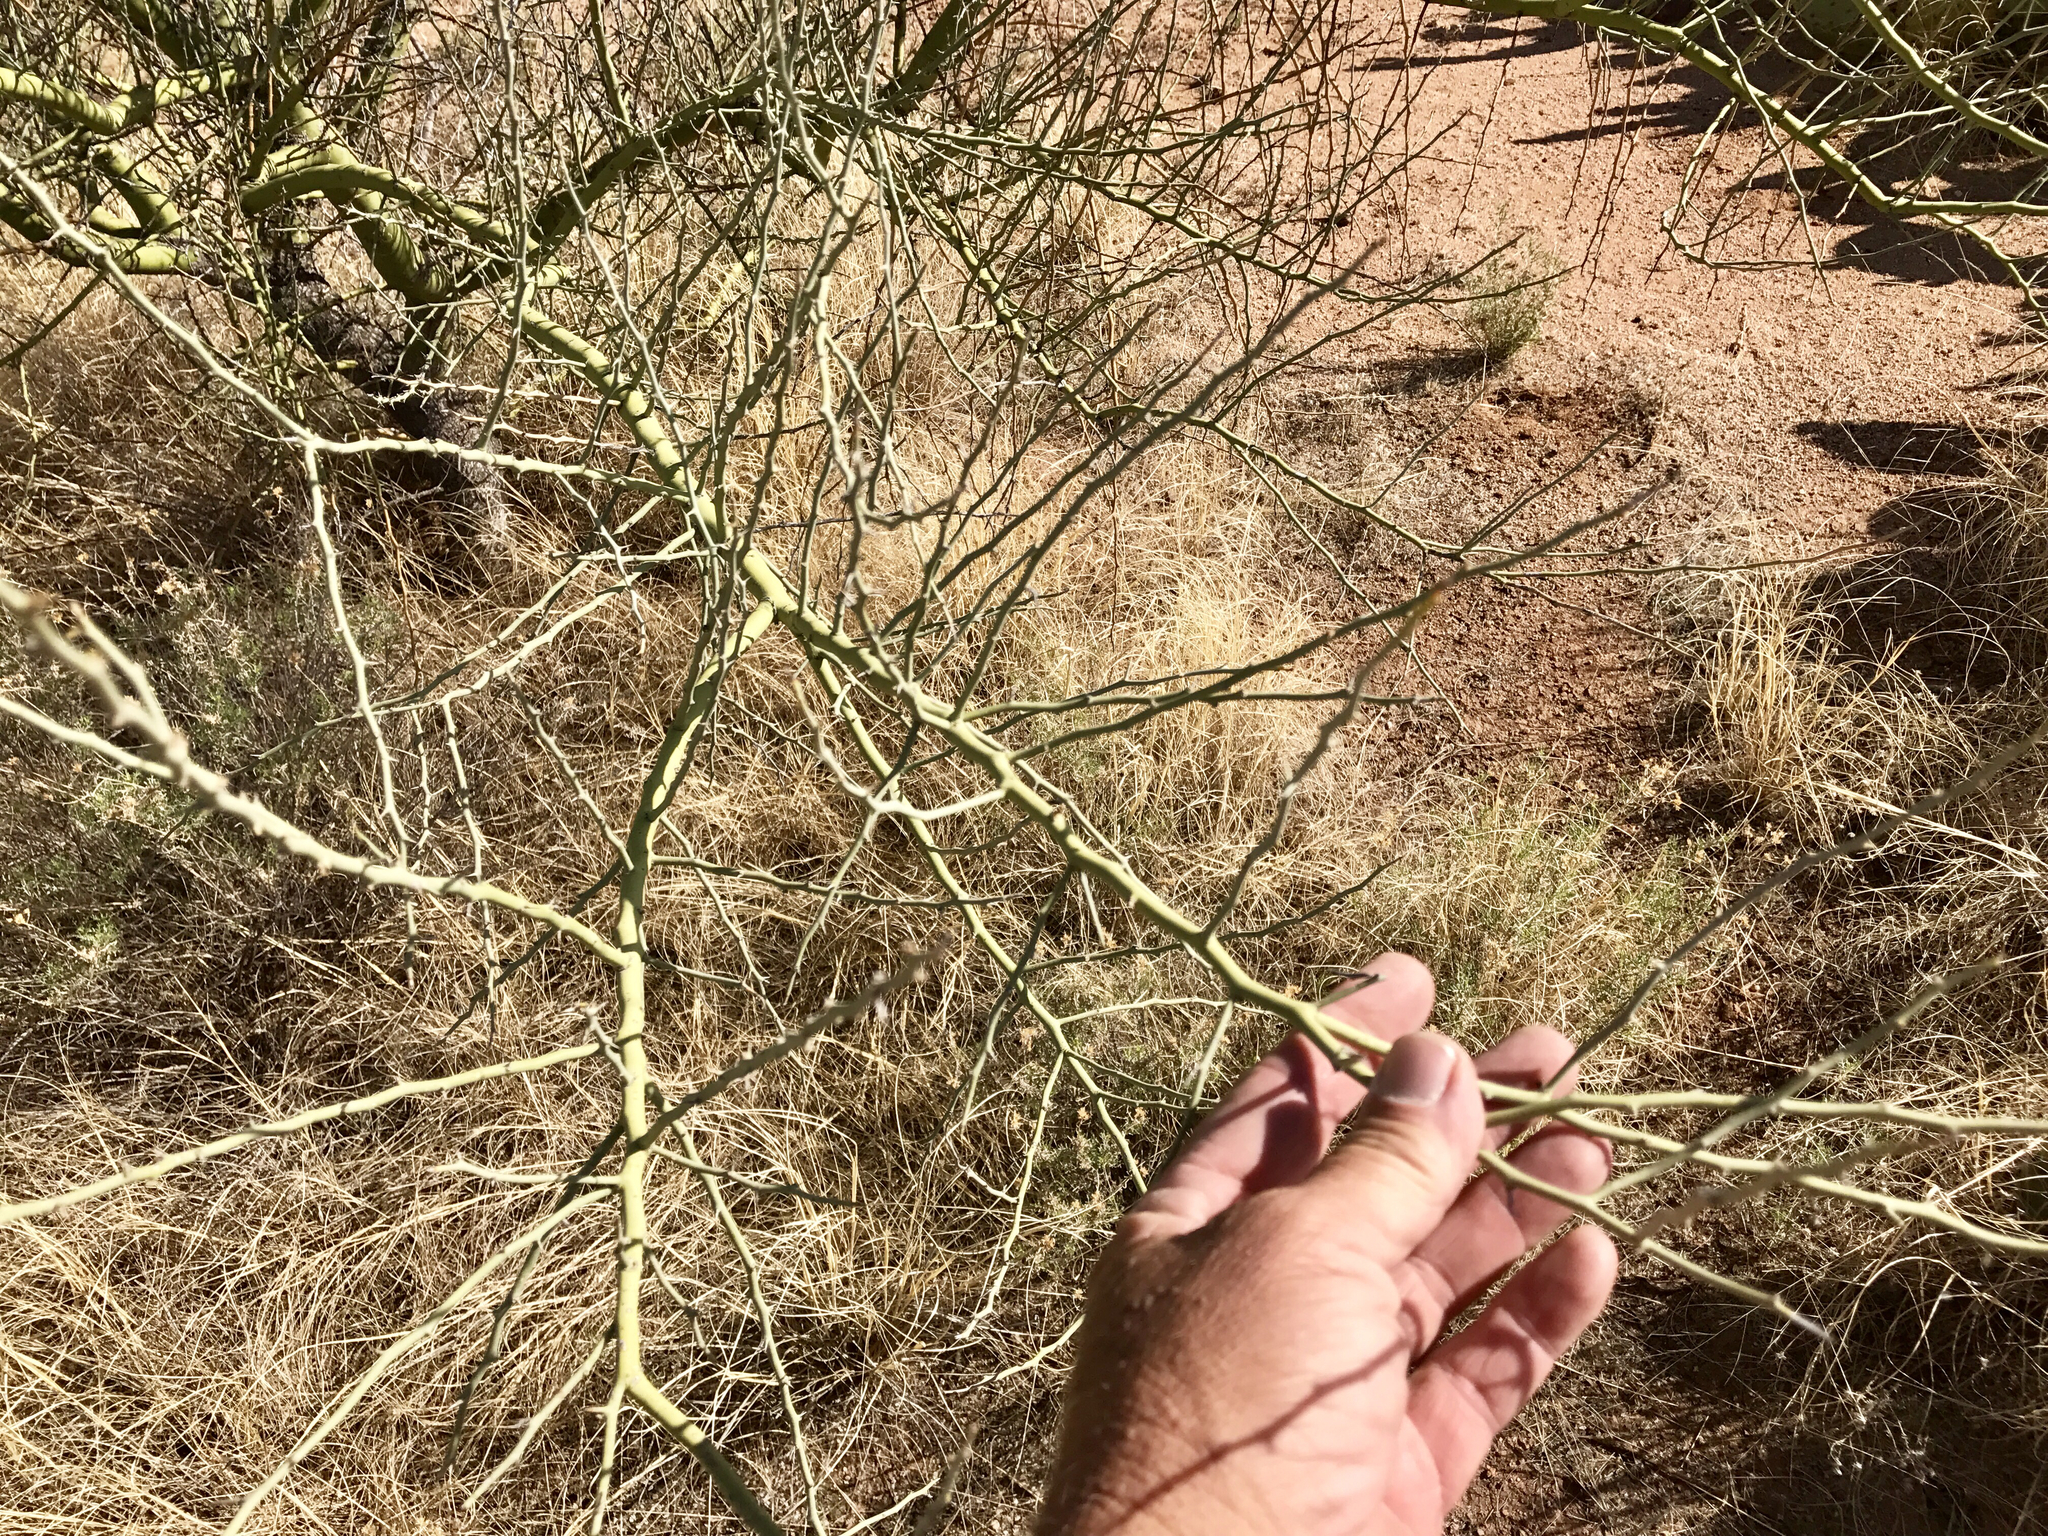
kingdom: Plantae
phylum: Tracheophyta
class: Magnoliopsida
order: Fabales
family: Fabaceae
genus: Parkinsonia
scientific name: Parkinsonia florida
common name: Blue paloverde
